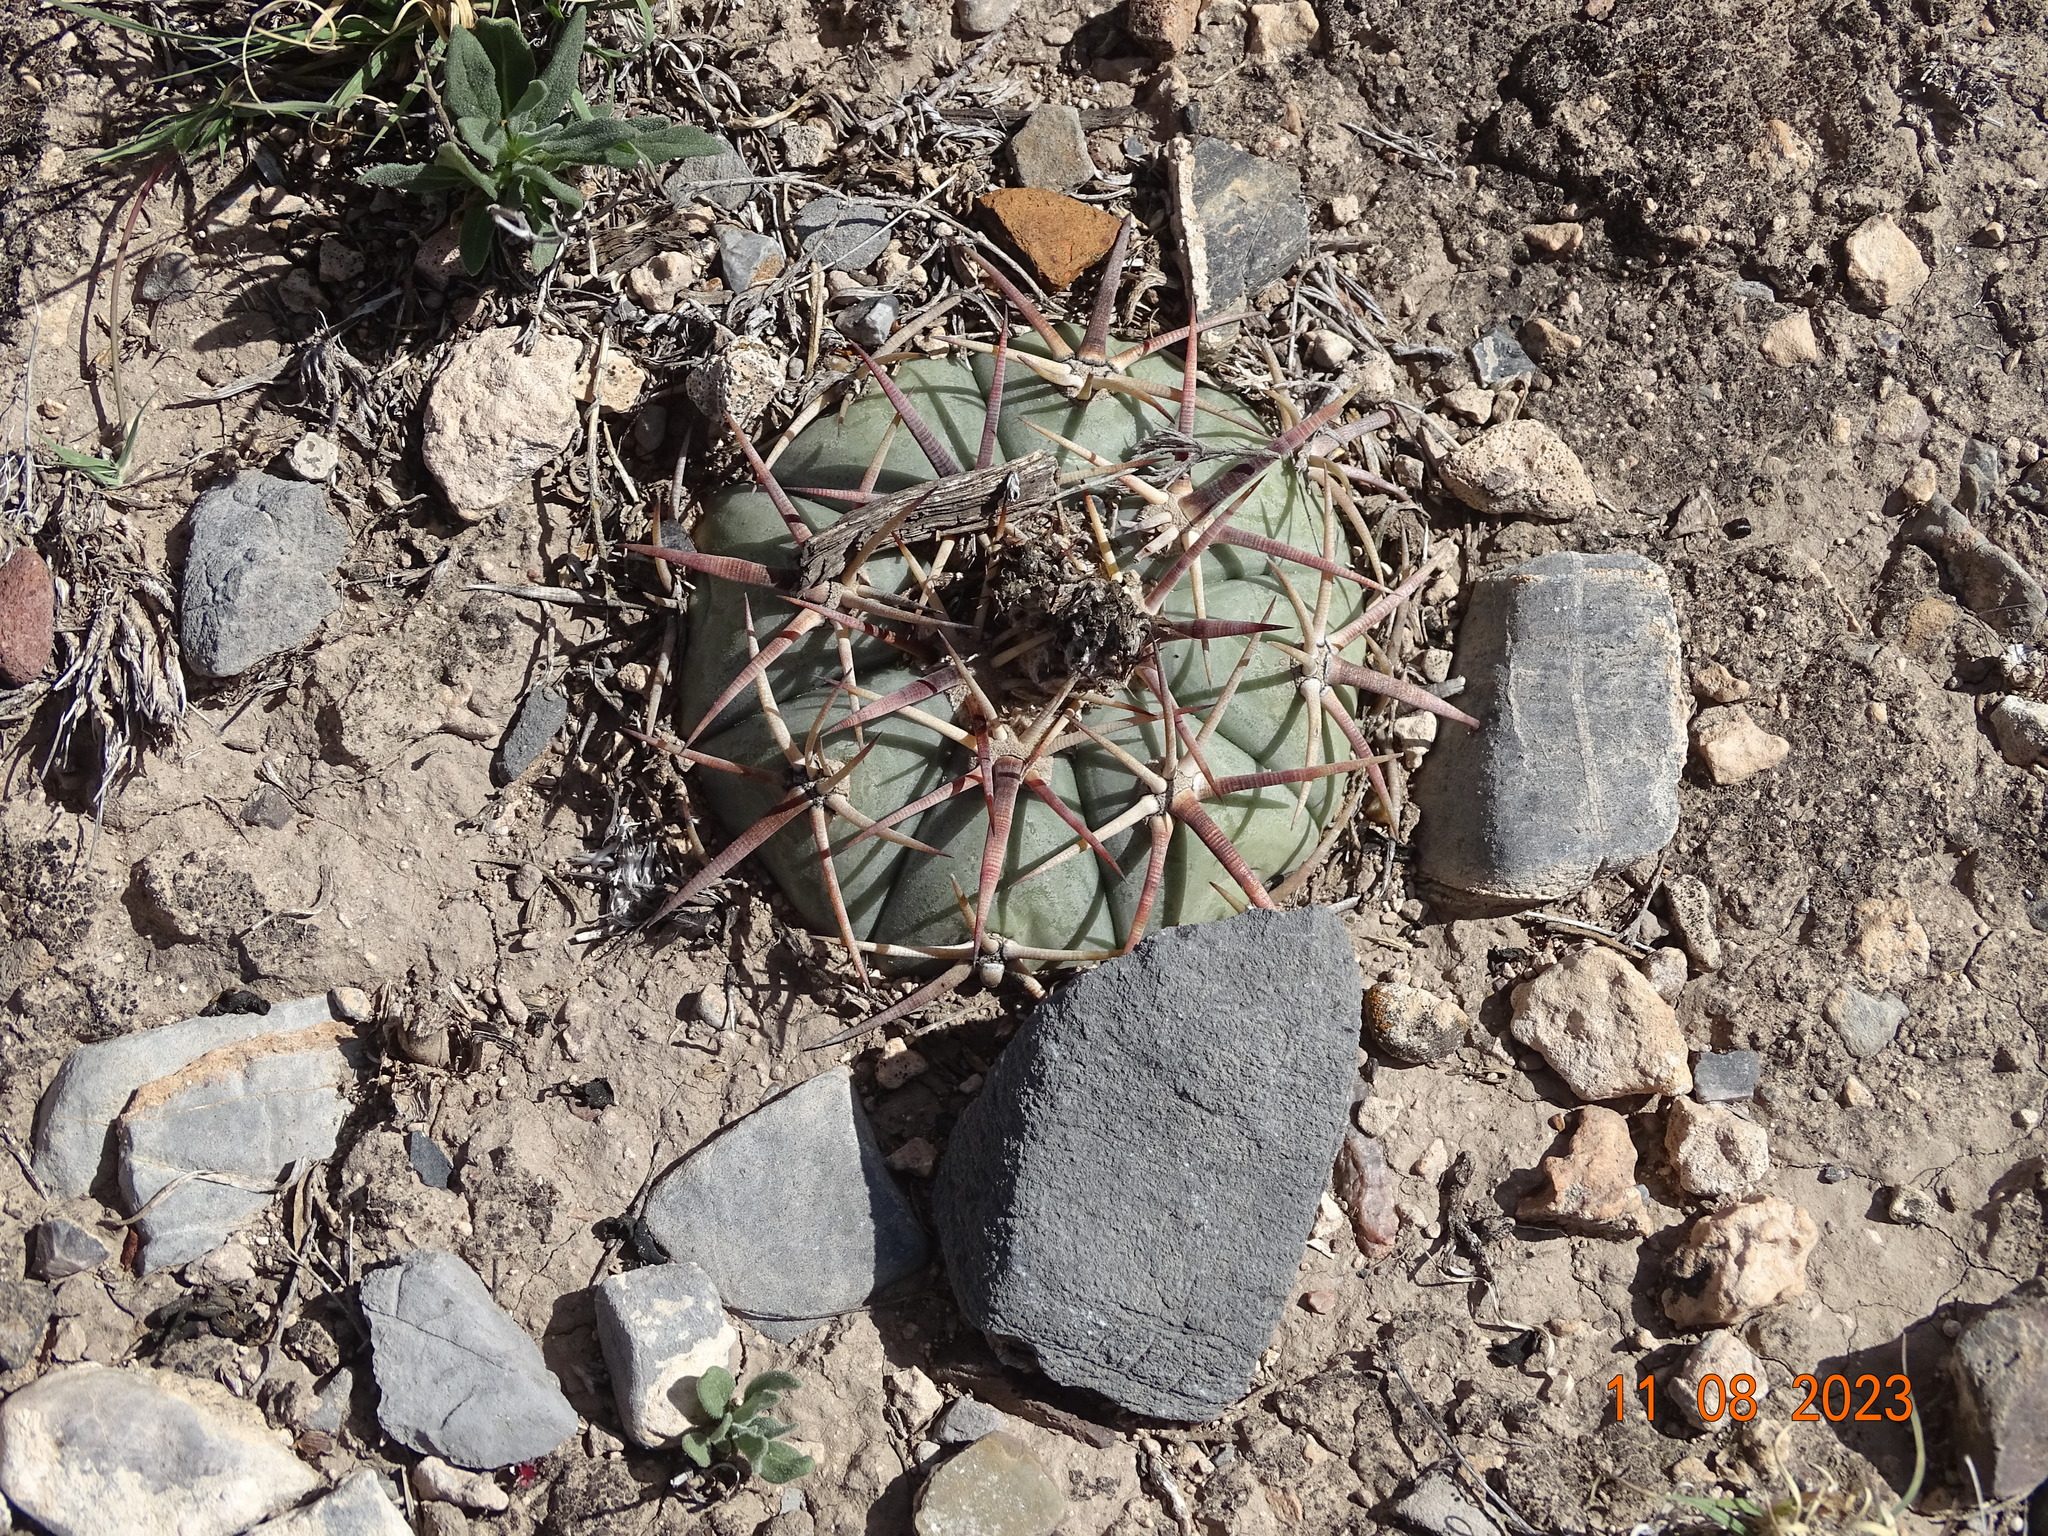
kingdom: Plantae
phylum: Tracheophyta
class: Magnoliopsida
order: Caryophyllales
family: Cactaceae
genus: Echinocactus
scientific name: Echinocactus horizonthalonius
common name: Devilshead
